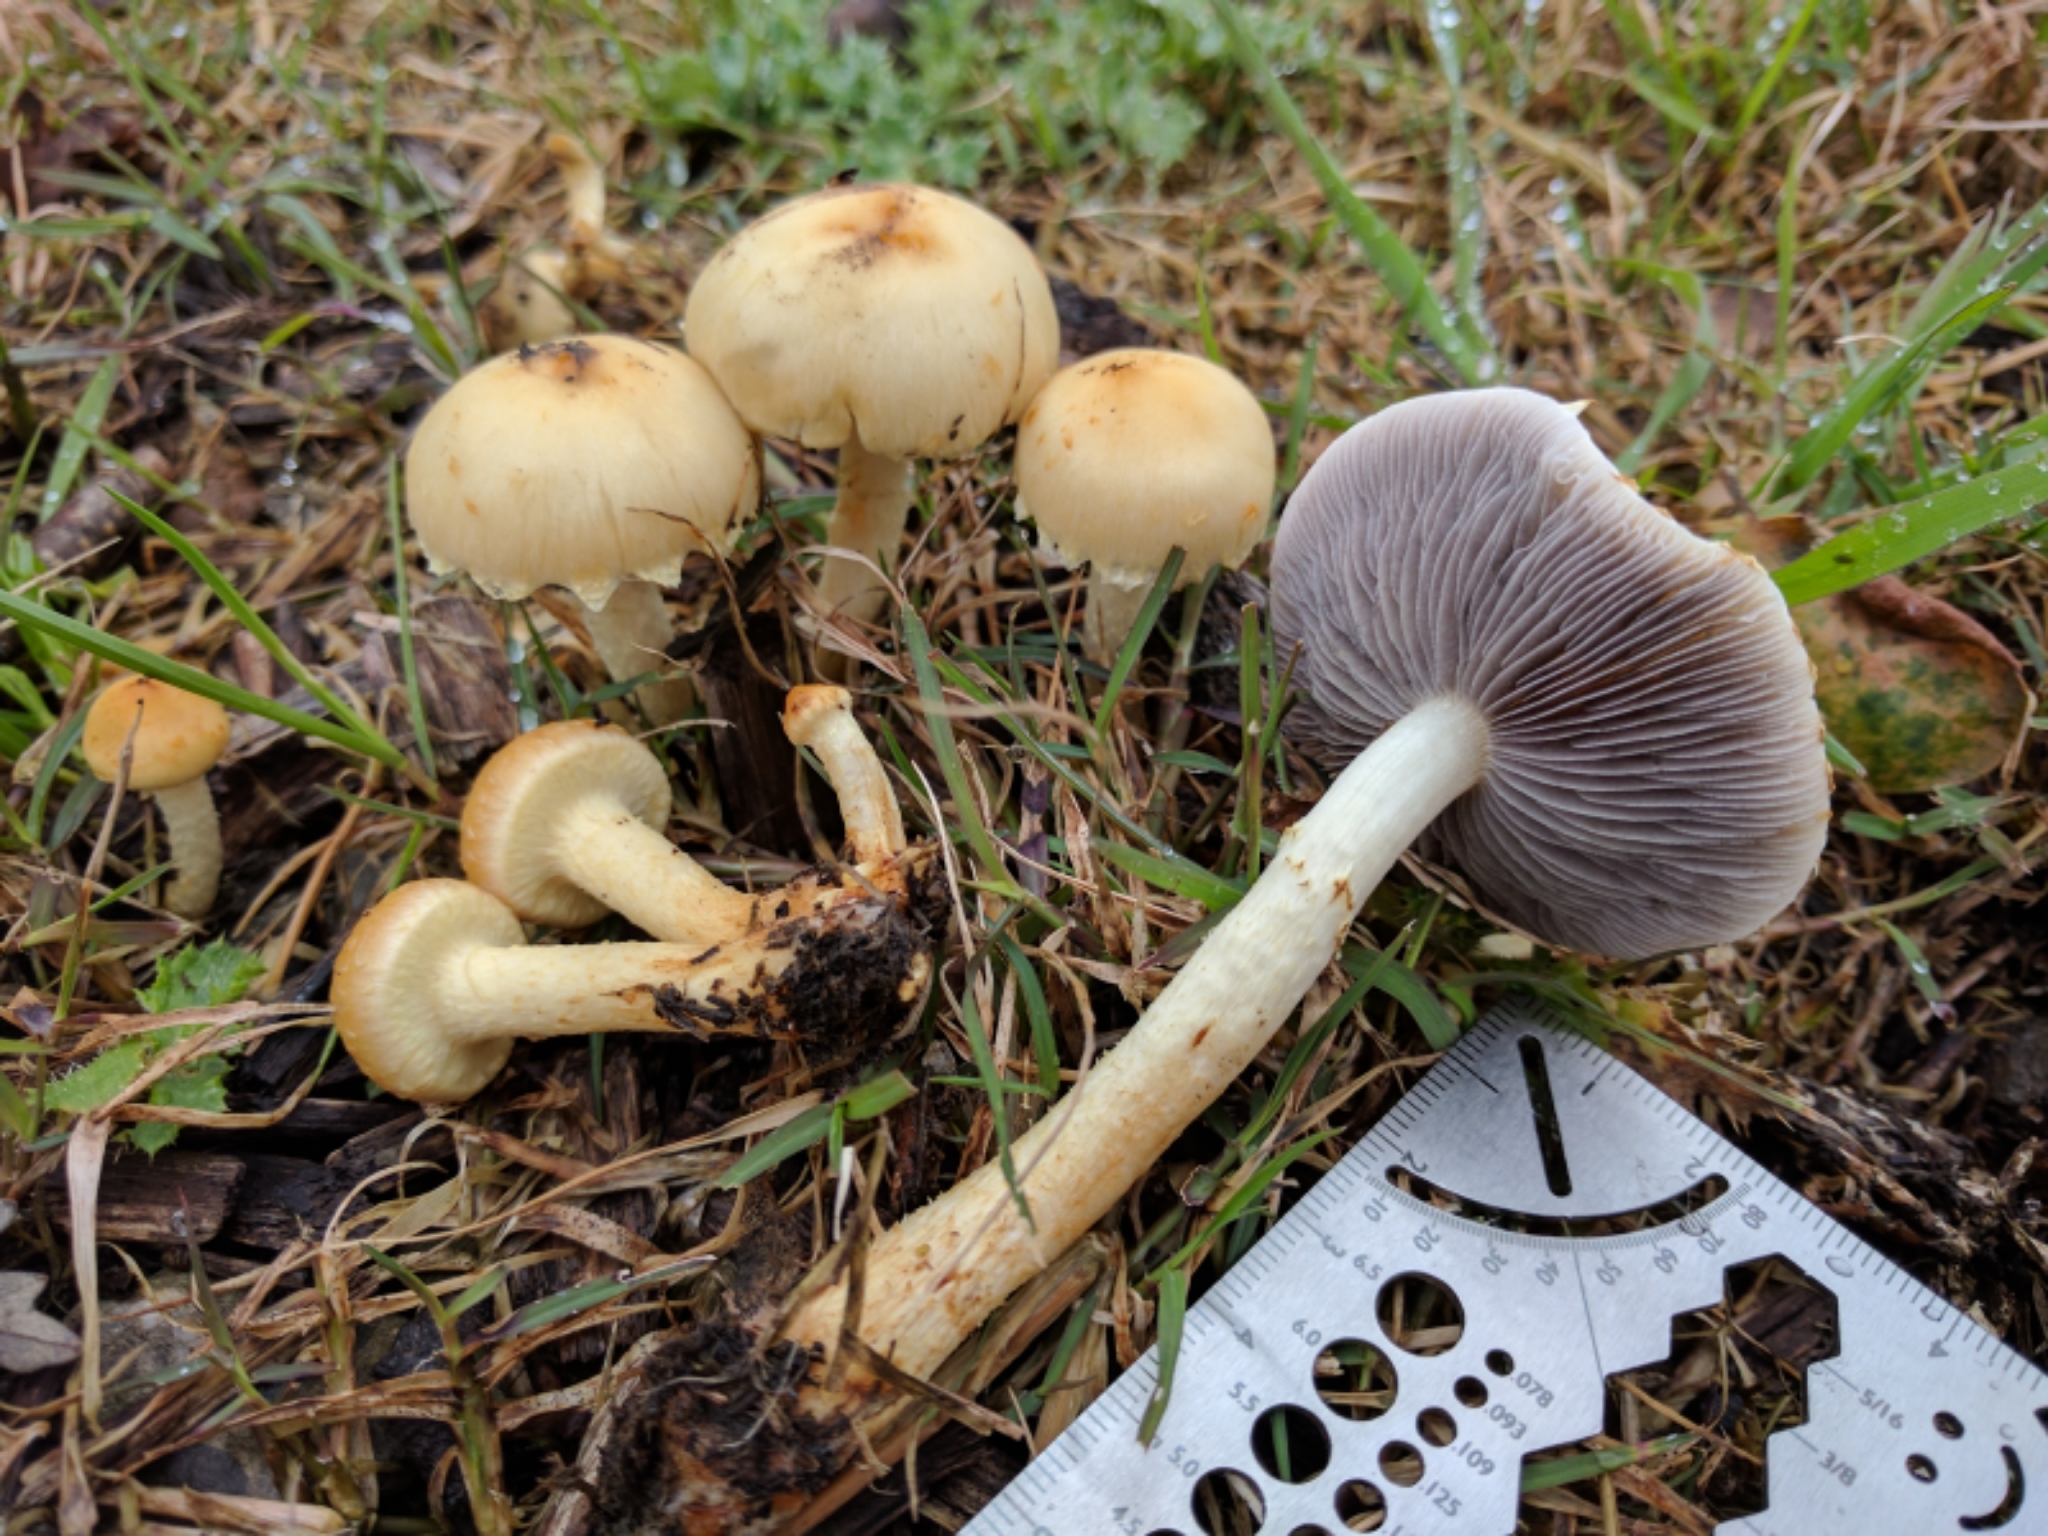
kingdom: Fungi
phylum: Basidiomycota
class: Agaricomycetes
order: Agaricales
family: Strophariaceae
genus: Leratiomyces
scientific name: Leratiomyces percevalii
